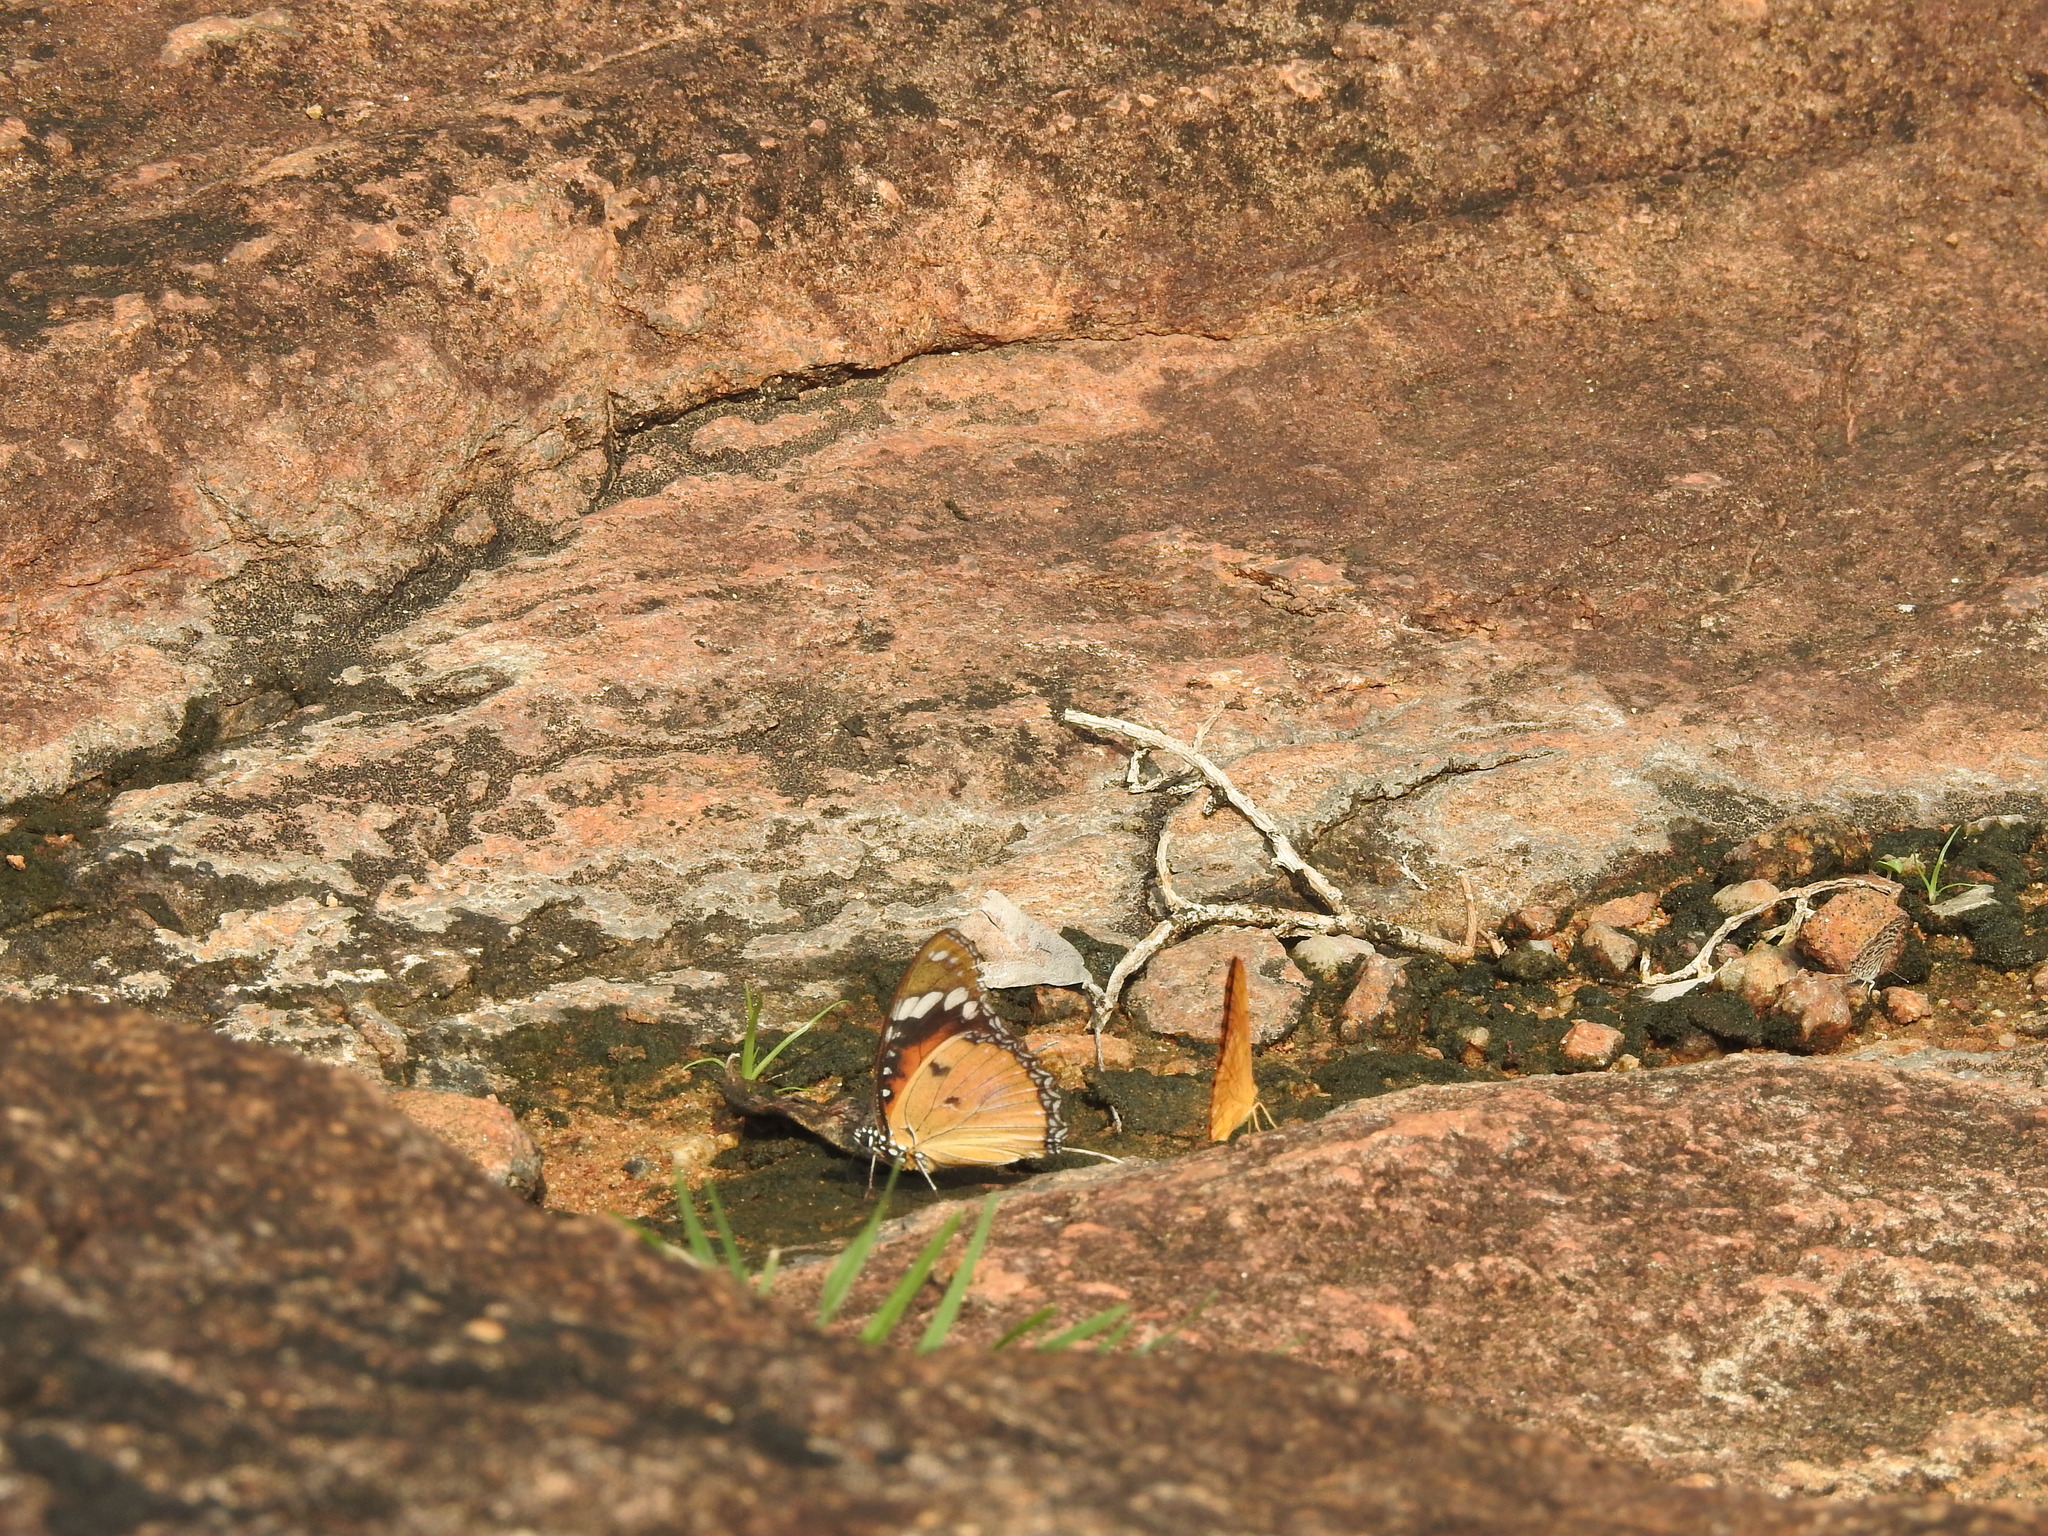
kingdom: Animalia
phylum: Arthropoda
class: Insecta
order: Lepidoptera
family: Nymphalidae
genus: Phalanta
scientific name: Phalanta phalantha
